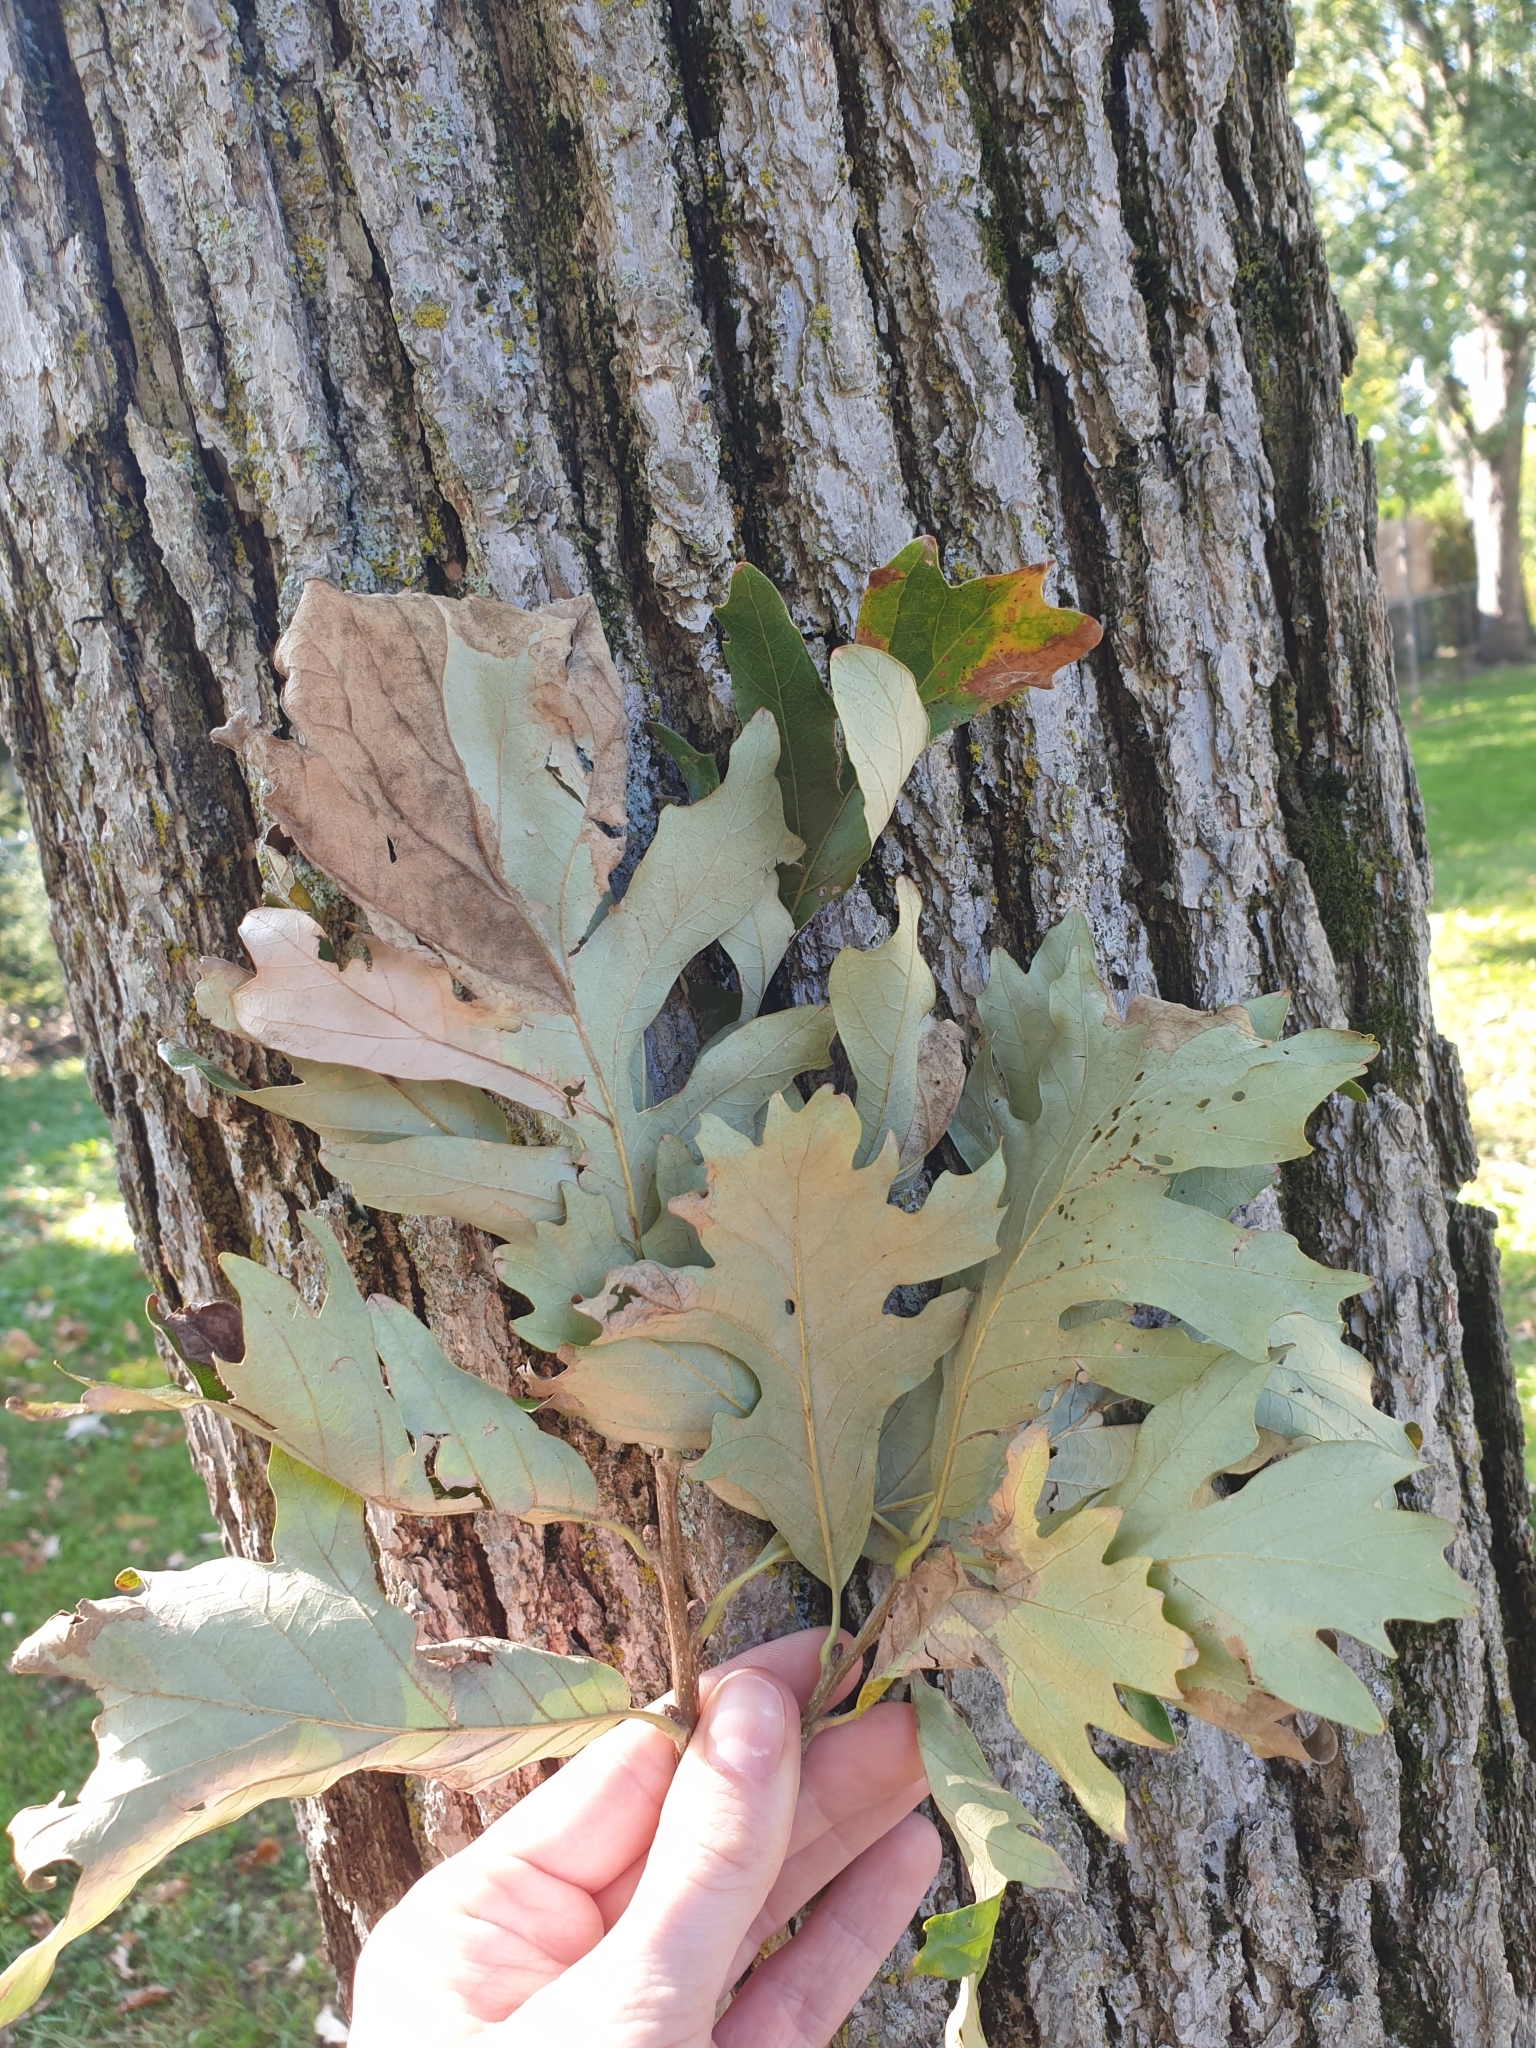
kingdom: Plantae
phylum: Tracheophyta
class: Magnoliopsida
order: Fagales
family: Fagaceae
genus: Quercus
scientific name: Quercus macrocarpa
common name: Bur oak
